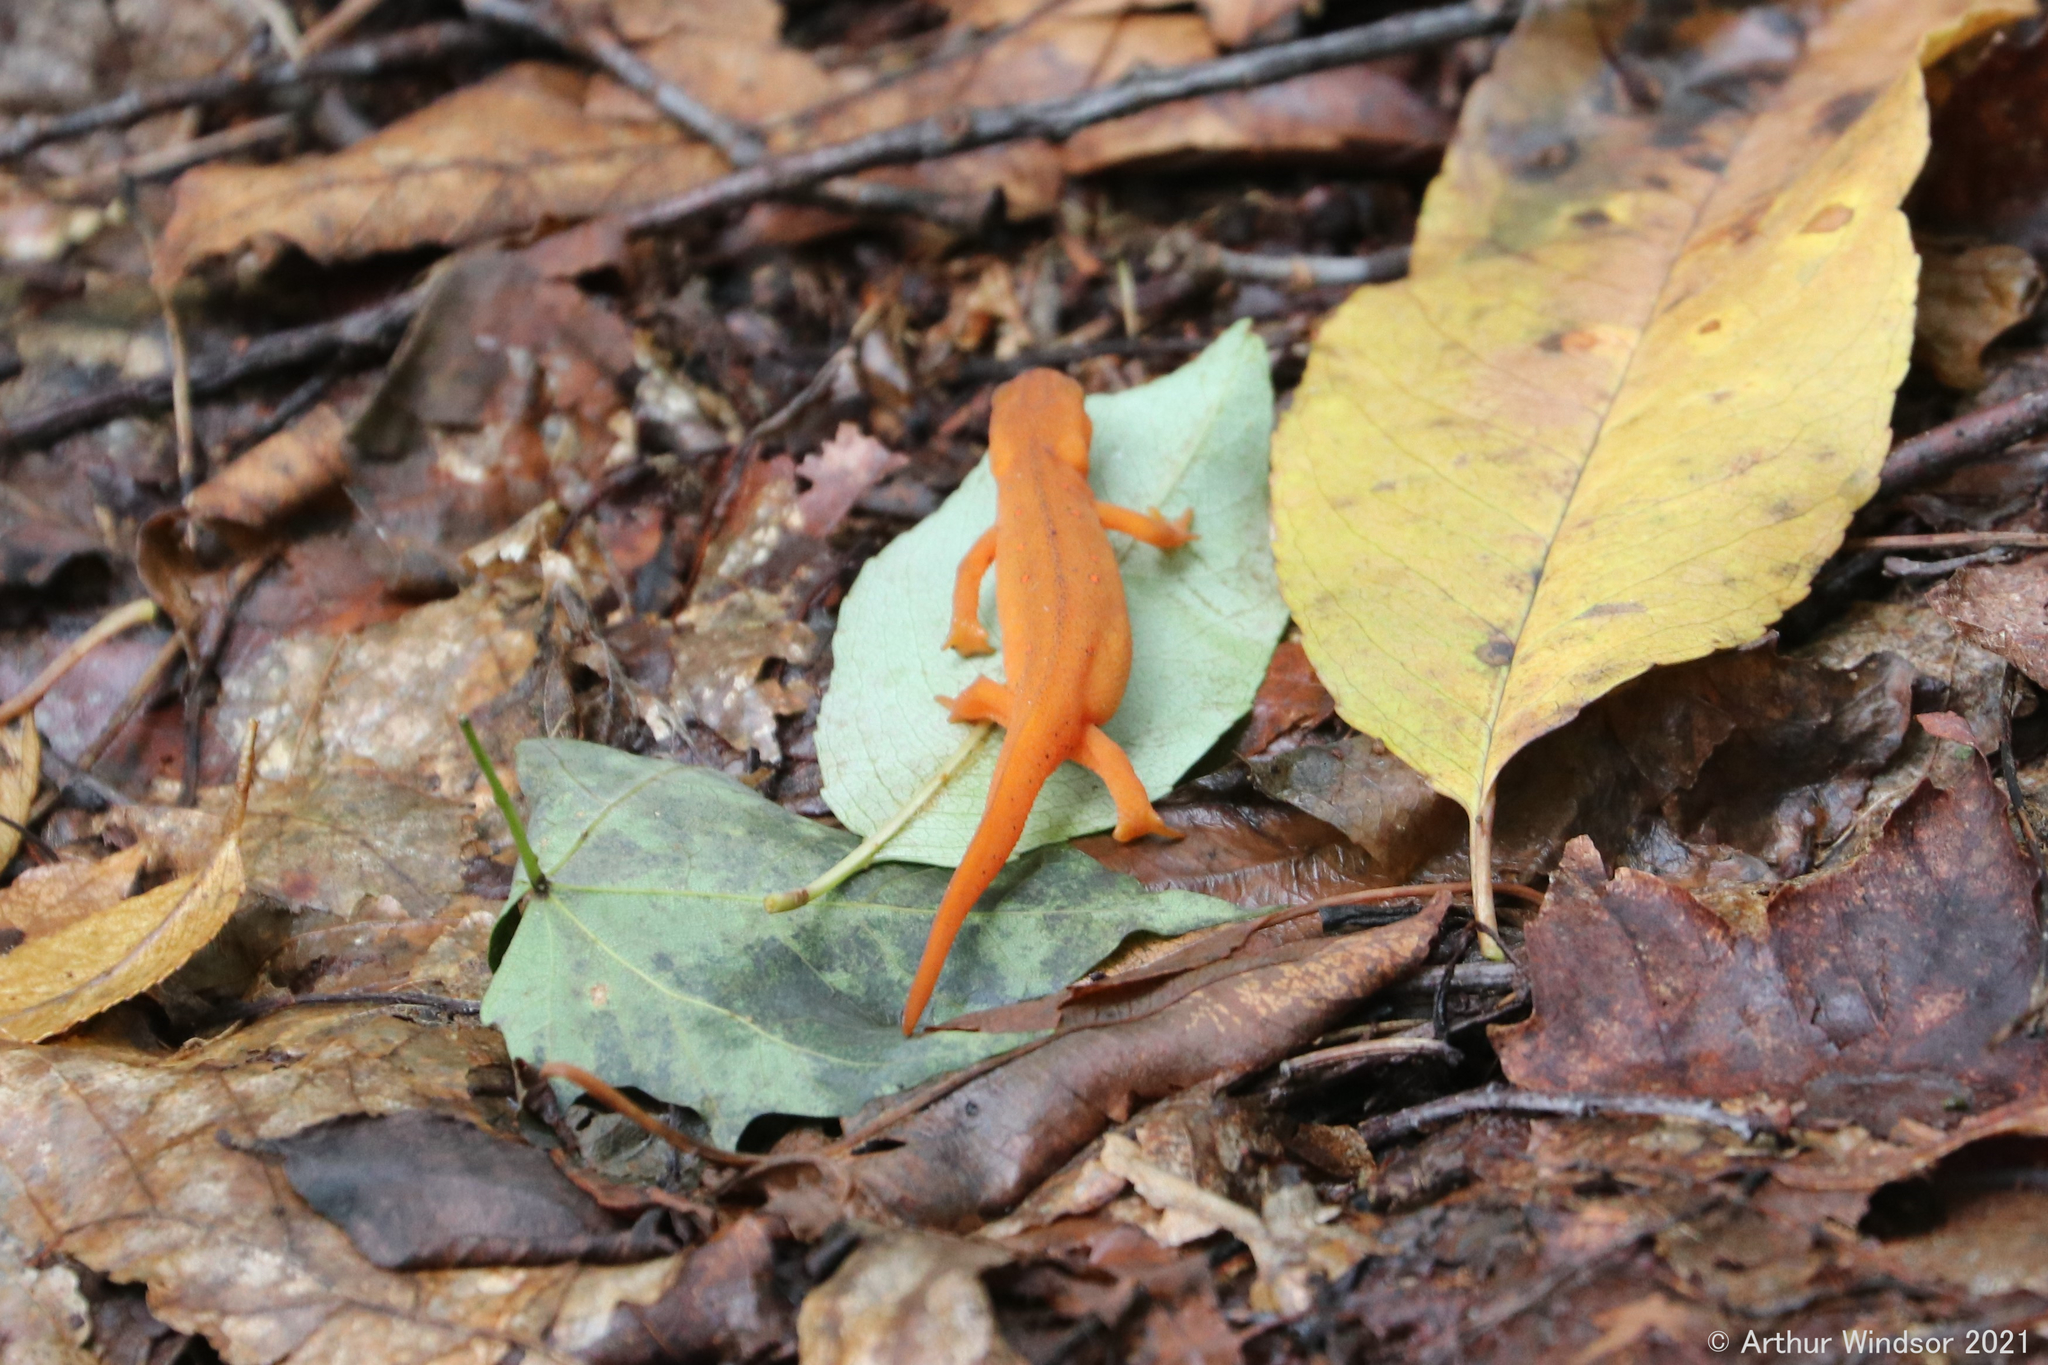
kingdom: Animalia
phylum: Chordata
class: Amphibia
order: Caudata
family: Salamandridae
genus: Notophthalmus
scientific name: Notophthalmus viridescens
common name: Eastern newt
